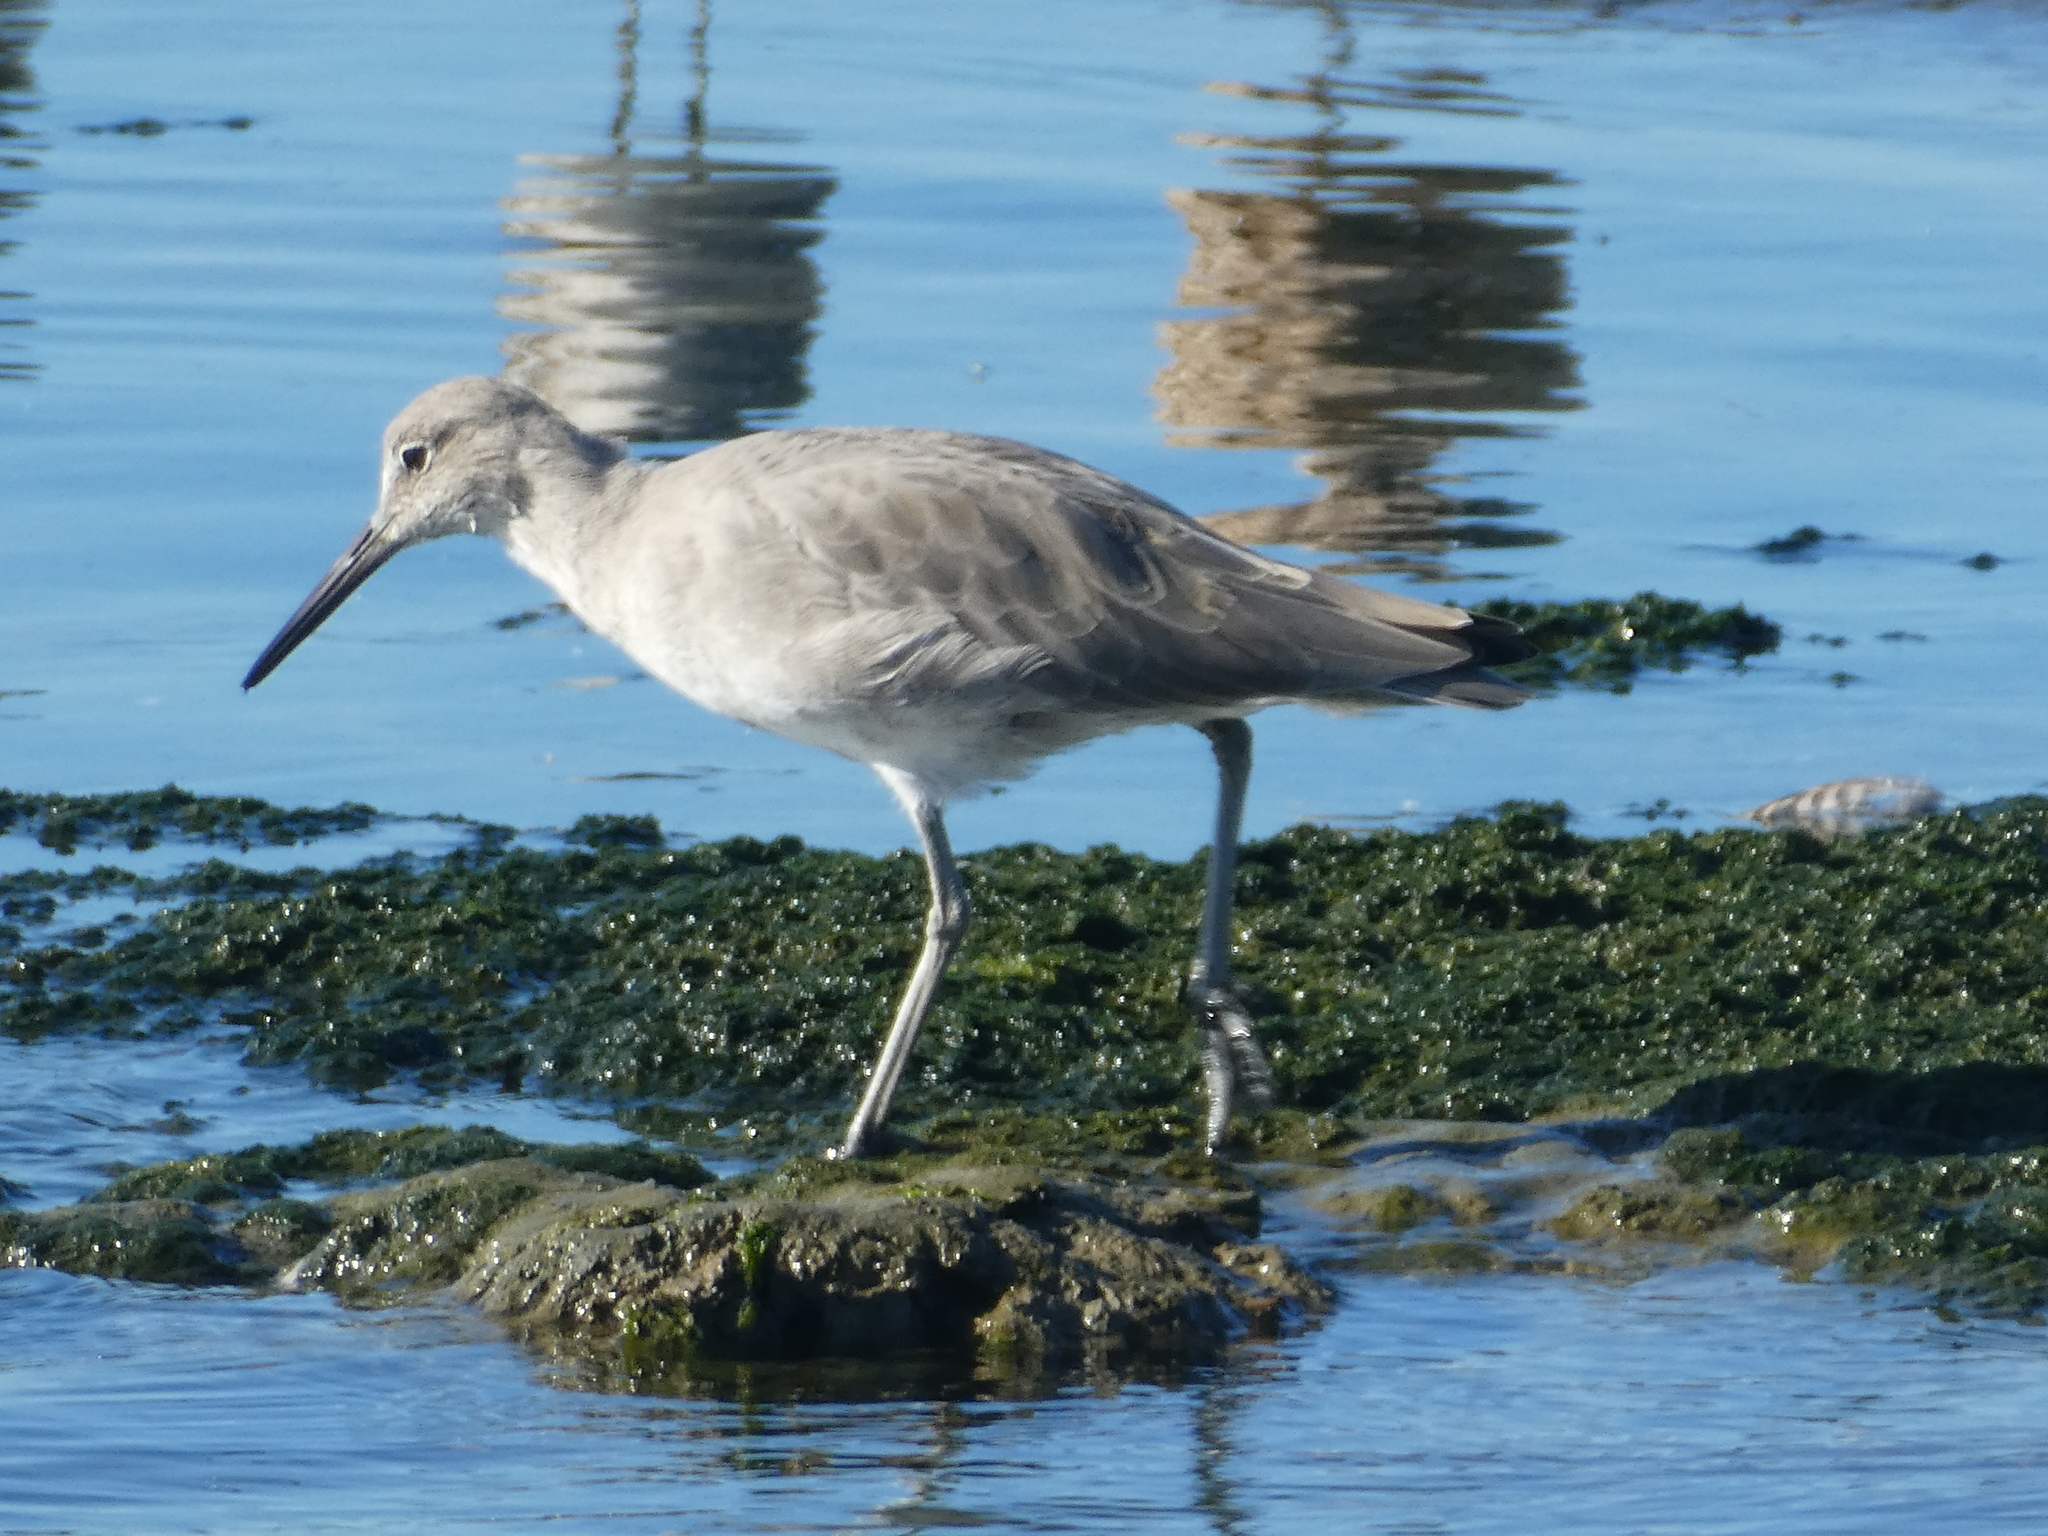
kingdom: Animalia
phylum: Chordata
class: Aves
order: Charadriiformes
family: Scolopacidae
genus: Tringa
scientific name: Tringa semipalmata
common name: Willet
